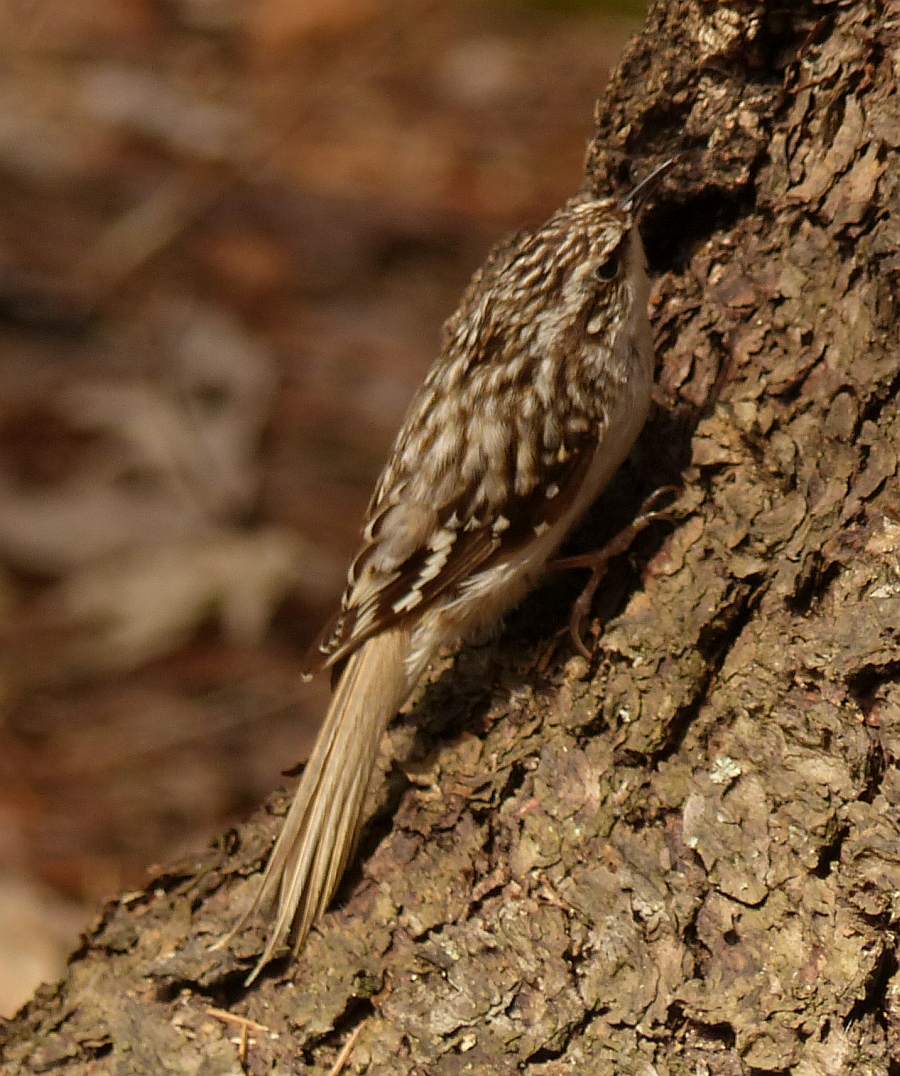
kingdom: Animalia
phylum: Chordata
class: Aves
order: Passeriformes
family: Certhiidae
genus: Certhia
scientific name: Certhia americana
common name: Brown creeper
